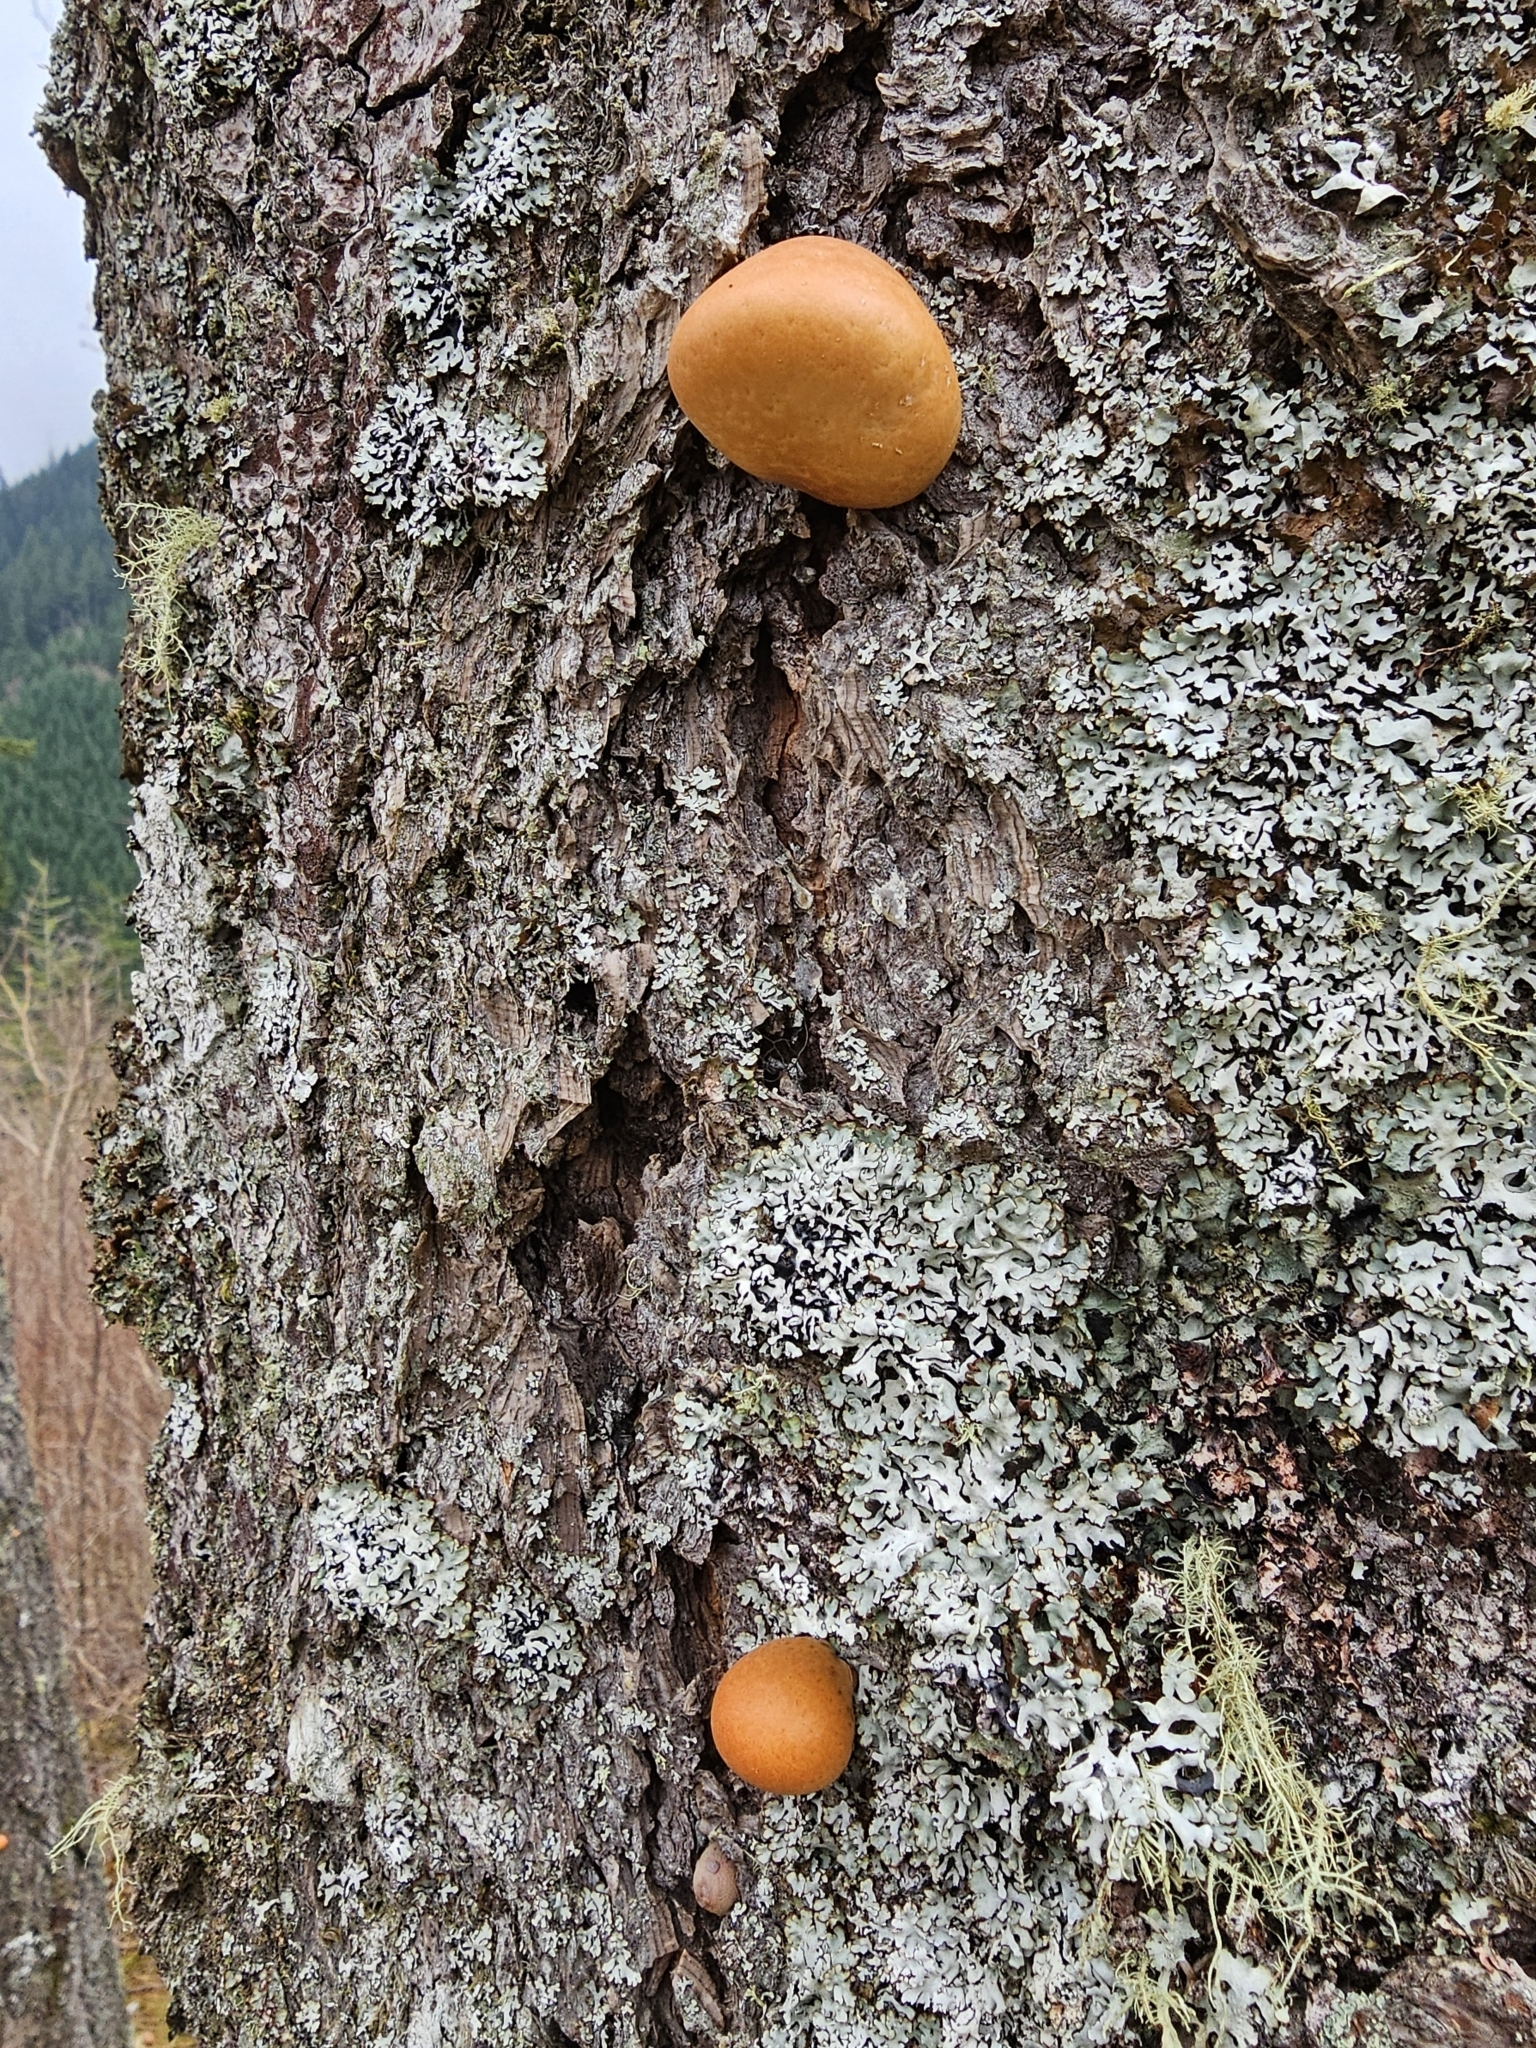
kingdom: Fungi
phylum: Basidiomycota
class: Agaricomycetes
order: Polyporales
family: Polyporaceae
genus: Cryptoporus
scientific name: Cryptoporus volvatus
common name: Veiled polypore
